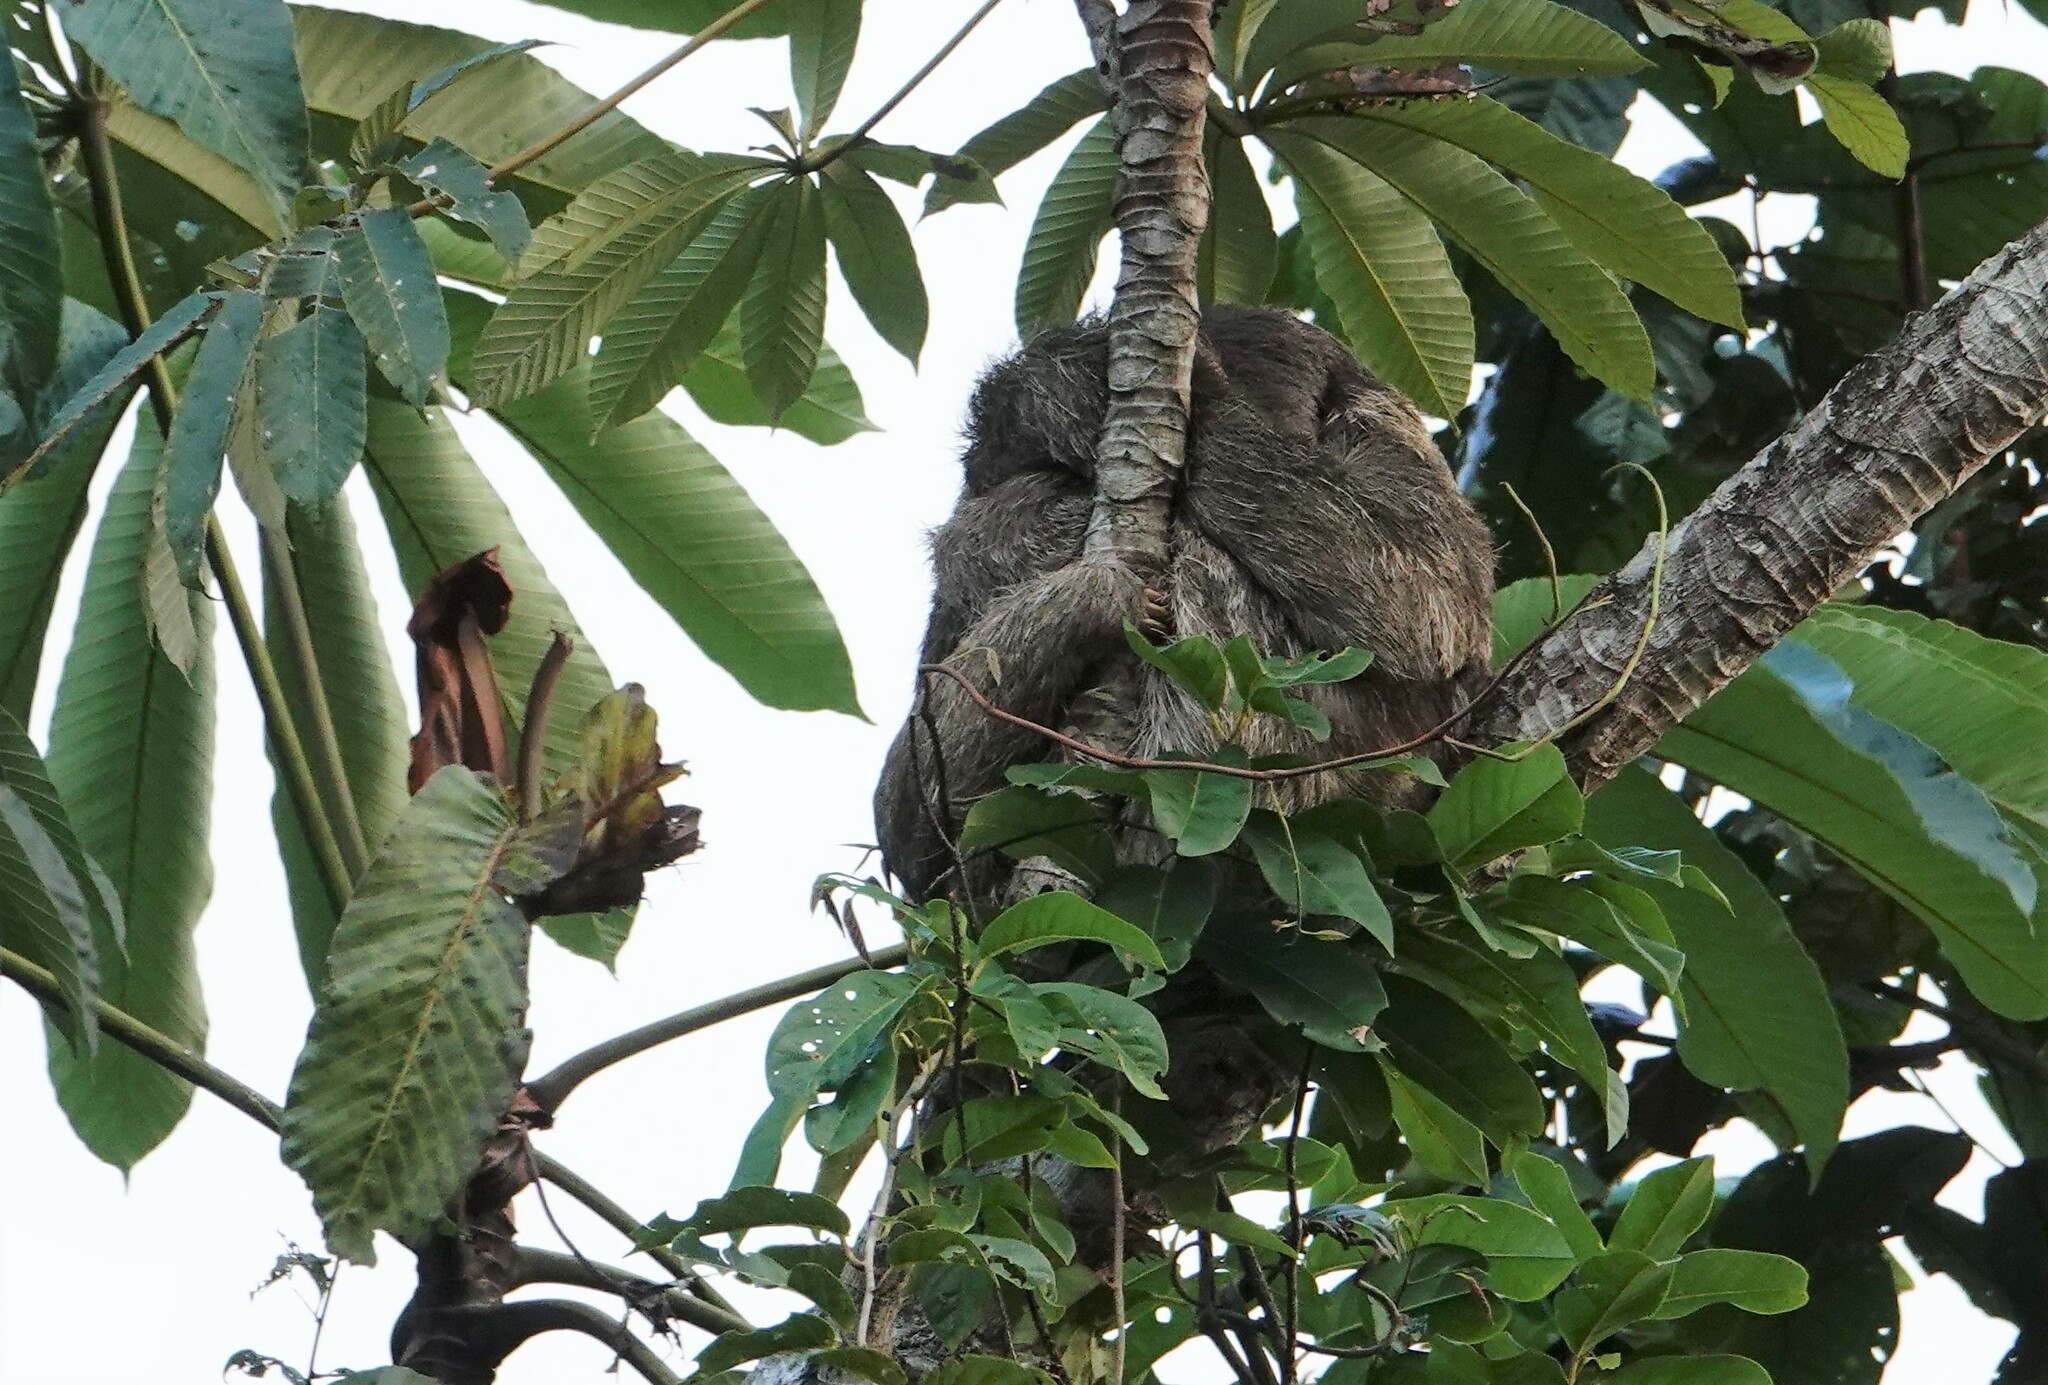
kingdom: Animalia
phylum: Chordata
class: Mammalia
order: Pilosa
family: Bradypodidae
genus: Bradypus
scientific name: Bradypus tridactylus
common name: Pale-throated three-toed sloth
